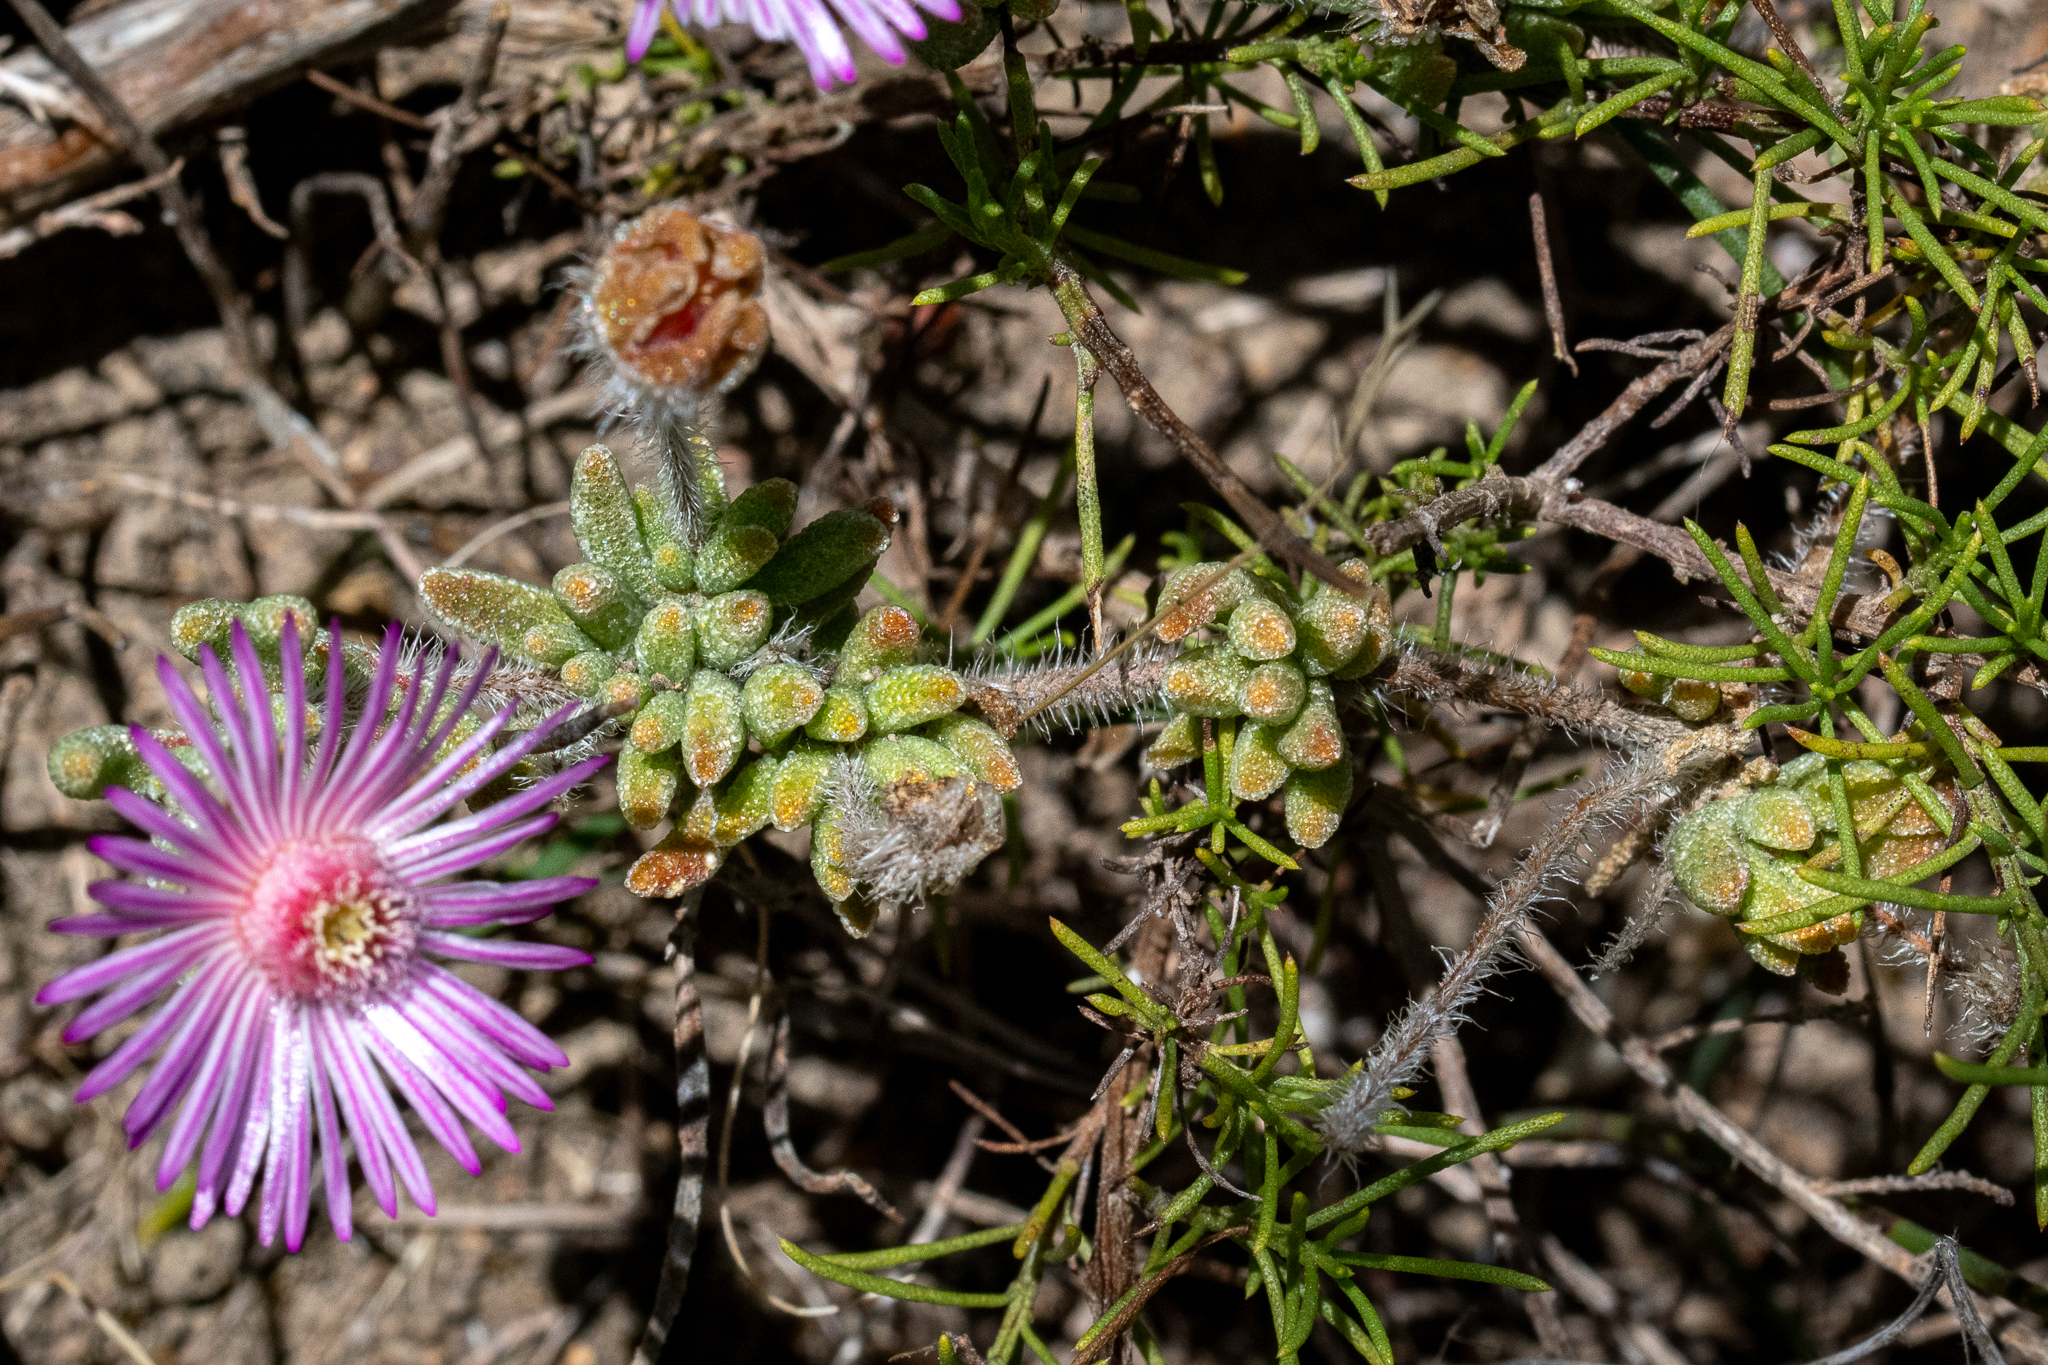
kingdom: Plantae
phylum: Tracheophyta
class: Magnoliopsida
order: Caryophyllales
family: Aizoaceae
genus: Drosanthemum
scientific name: Drosanthemum striatum
